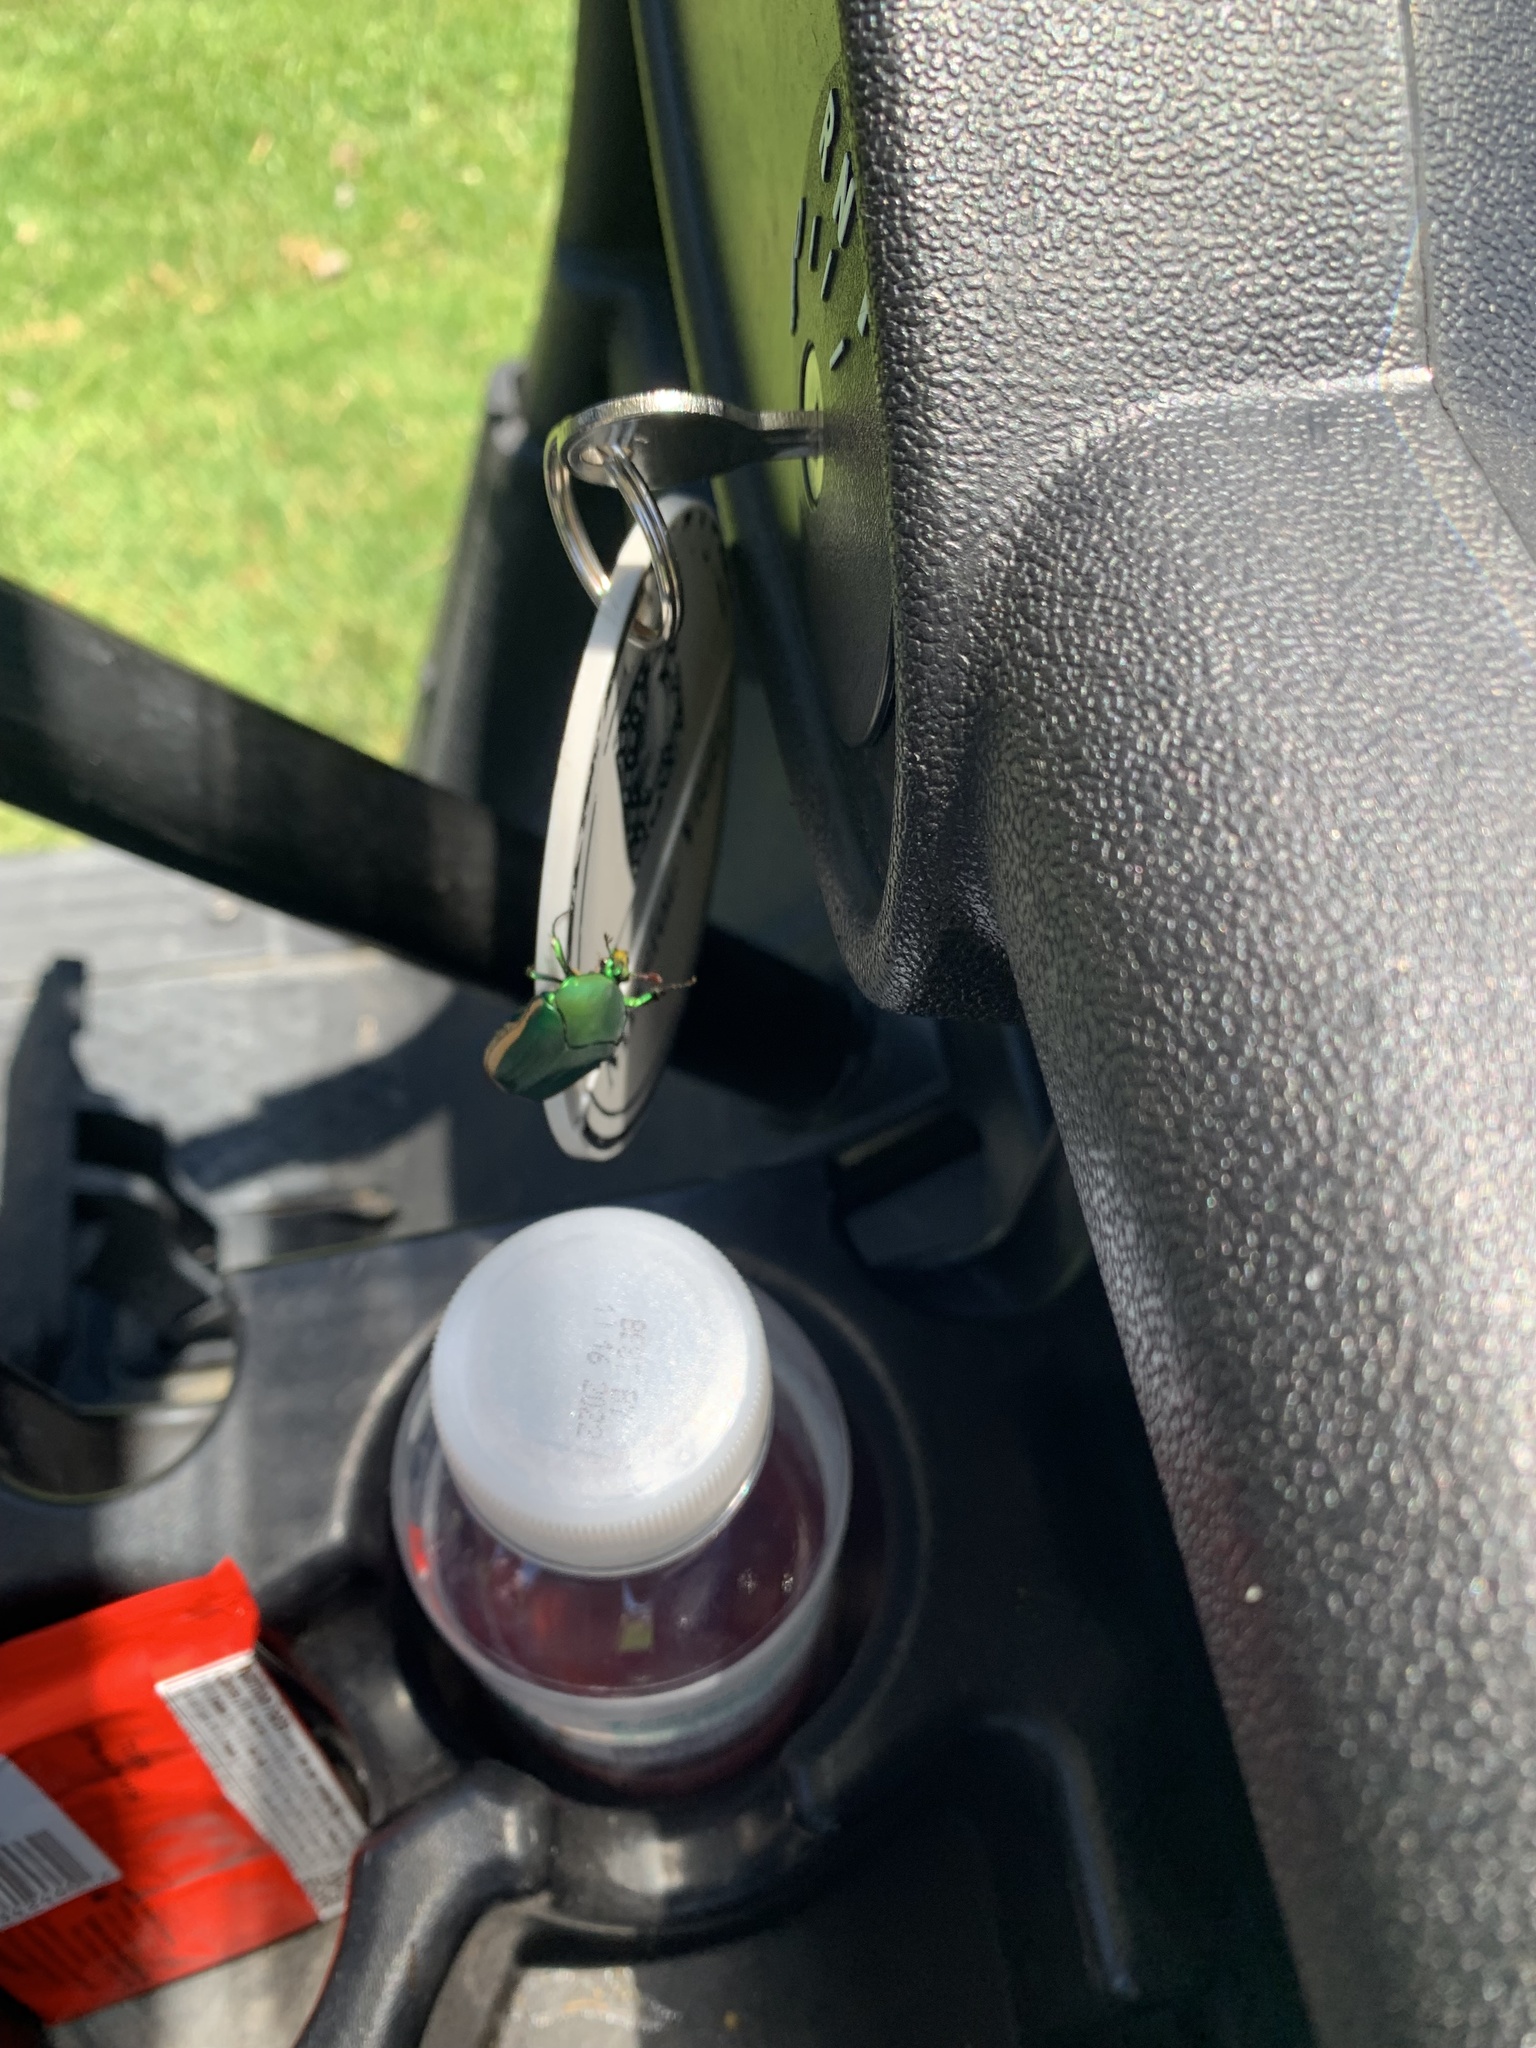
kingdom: Animalia
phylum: Arthropoda
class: Insecta
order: Coleoptera
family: Scarabaeidae
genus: Cotinis
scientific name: Cotinis mutabilis
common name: Figeater beetle
